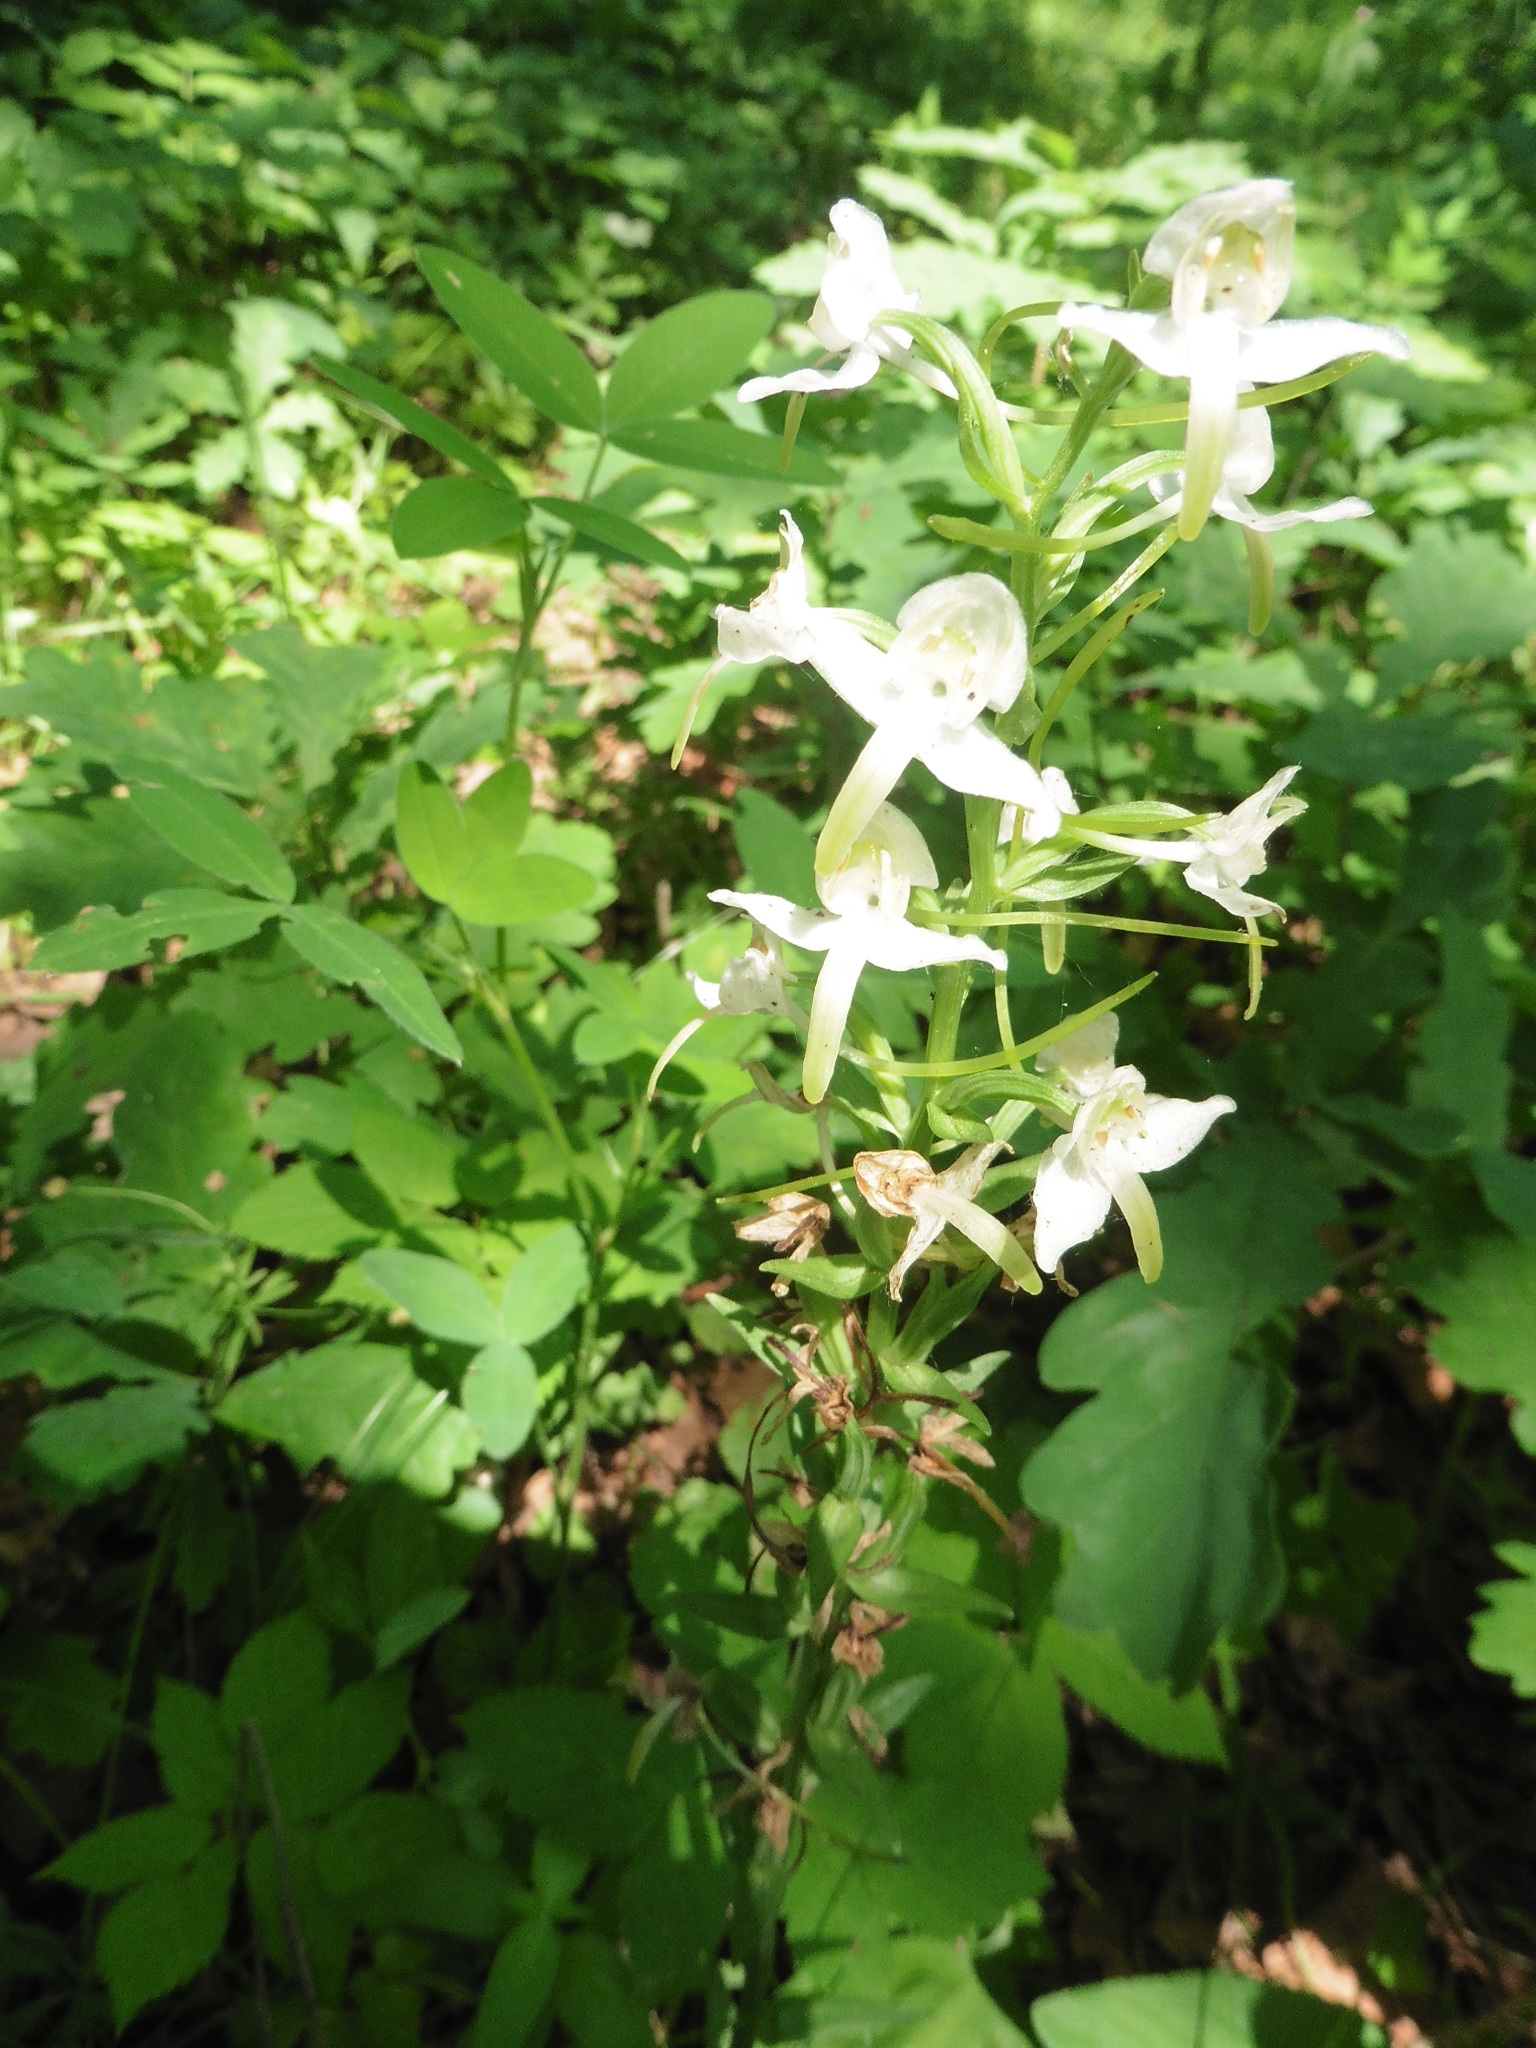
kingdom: Plantae
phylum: Tracheophyta
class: Liliopsida
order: Asparagales
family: Orchidaceae
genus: Platanthera
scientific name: Platanthera chlorantha
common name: Greater butterfly-orchid
